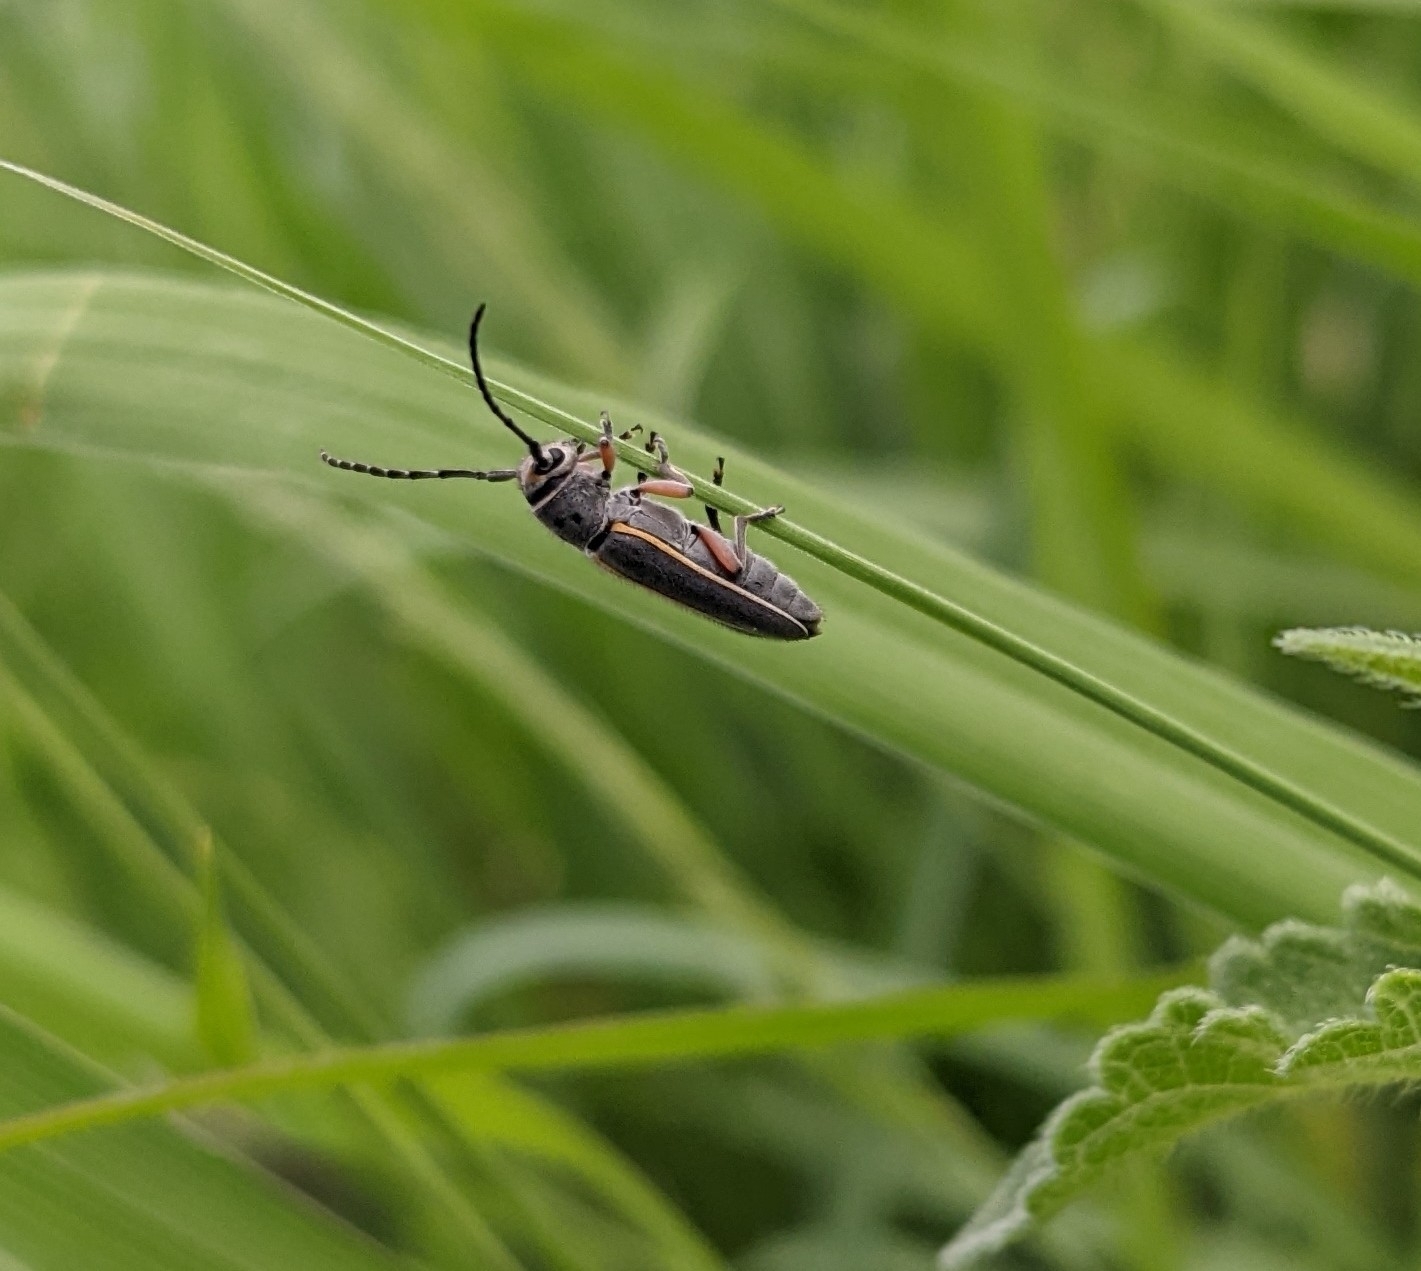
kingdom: Animalia
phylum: Arthropoda
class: Insecta
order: Coleoptera
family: Cerambycidae
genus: Mecas
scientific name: Mecas pergrata
